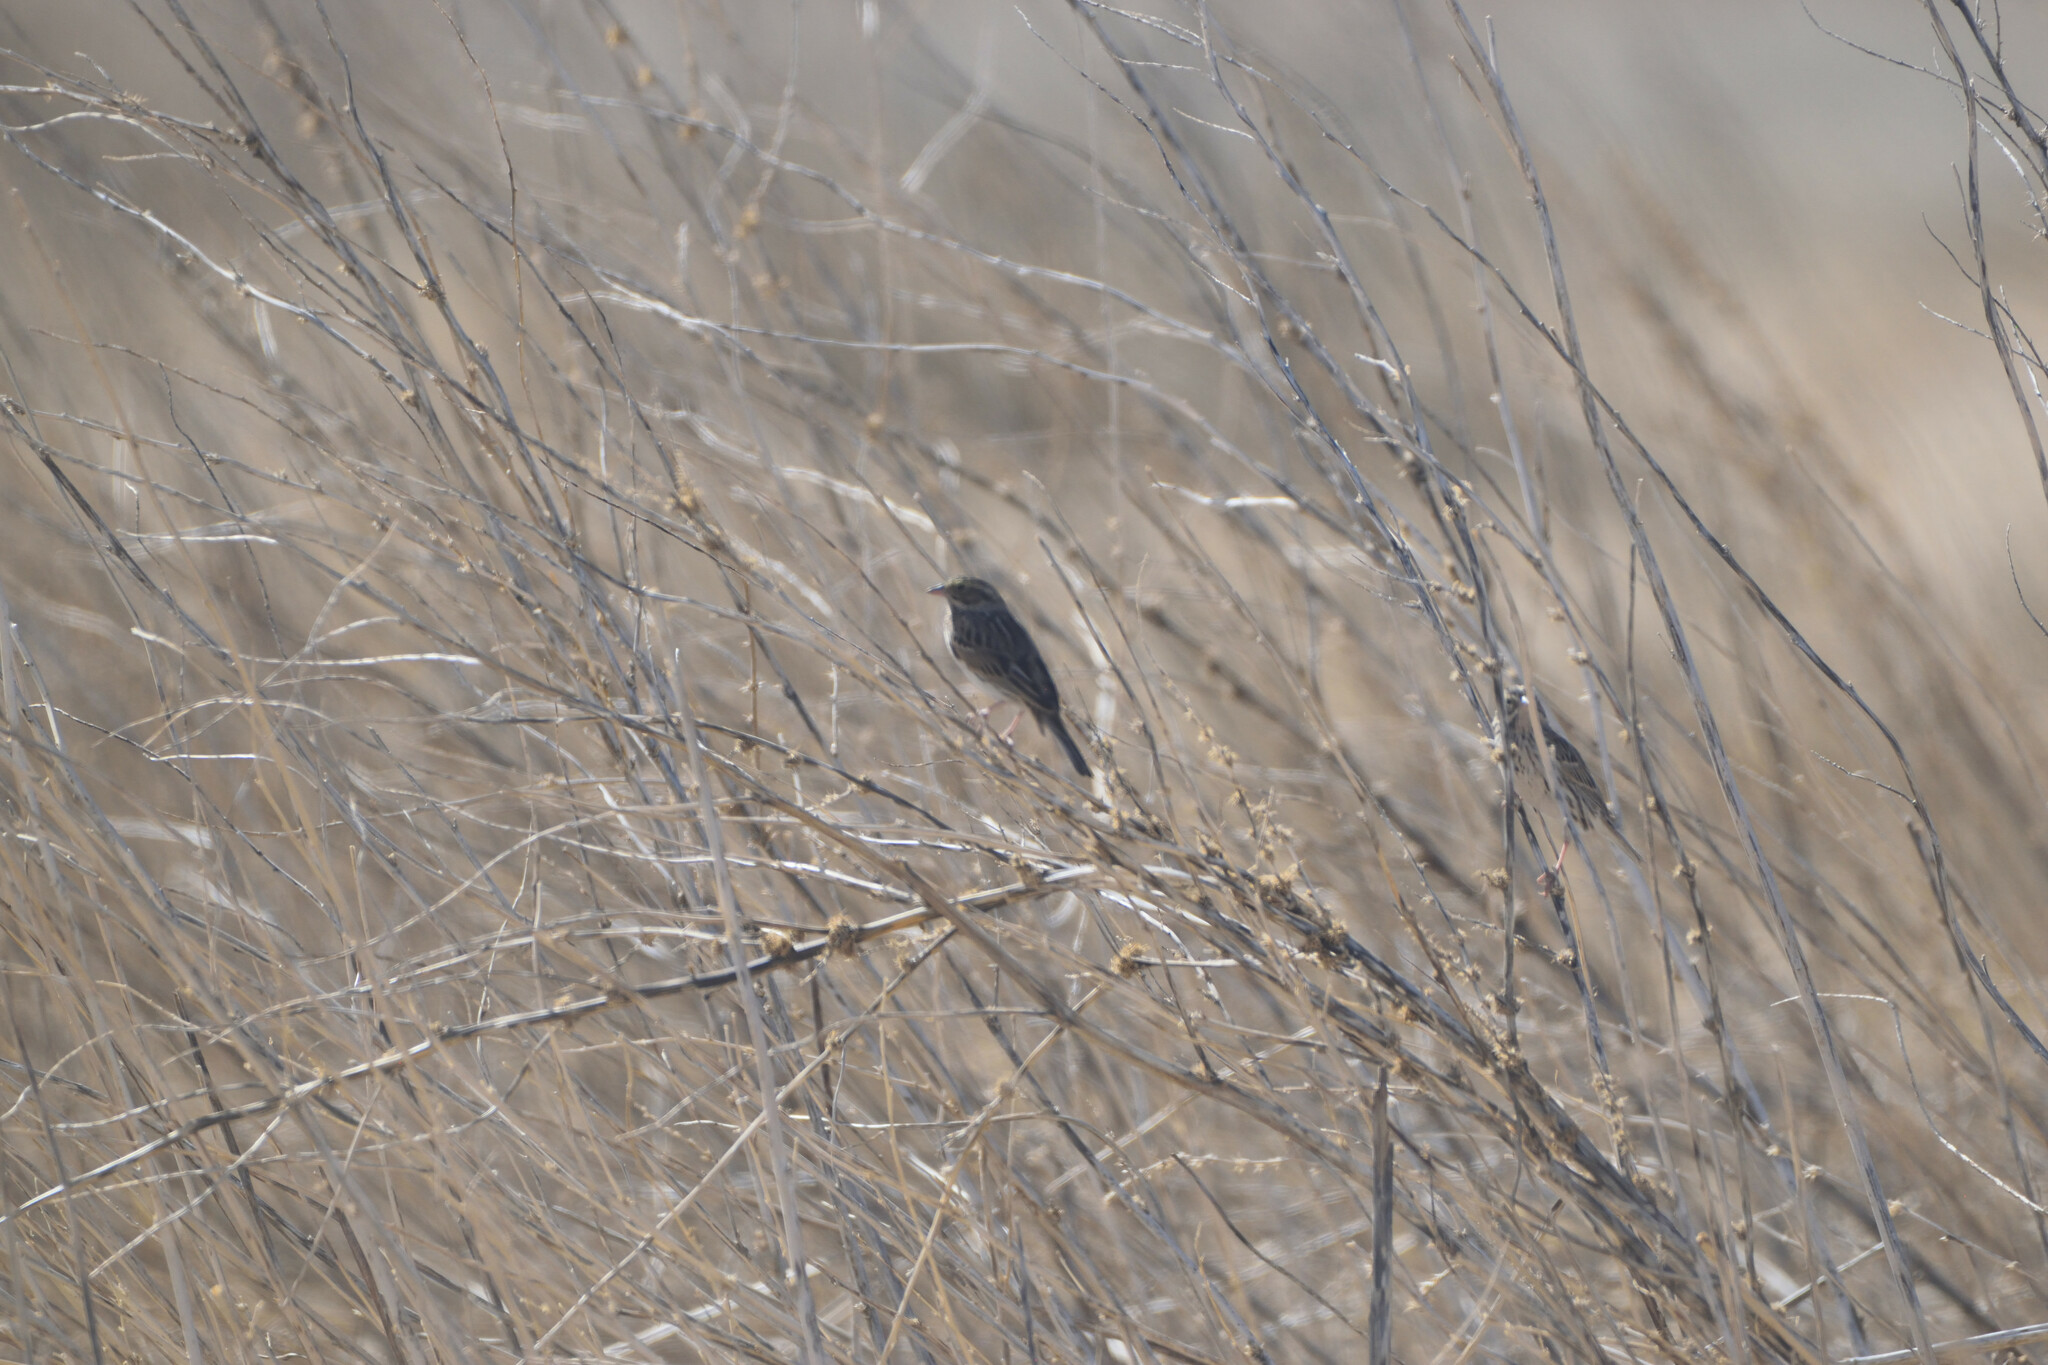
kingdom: Animalia
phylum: Chordata
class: Aves
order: Passeriformes
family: Passerellidae
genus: Passerculus
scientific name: Passerculus sandwichensis
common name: Savannah sparrow
